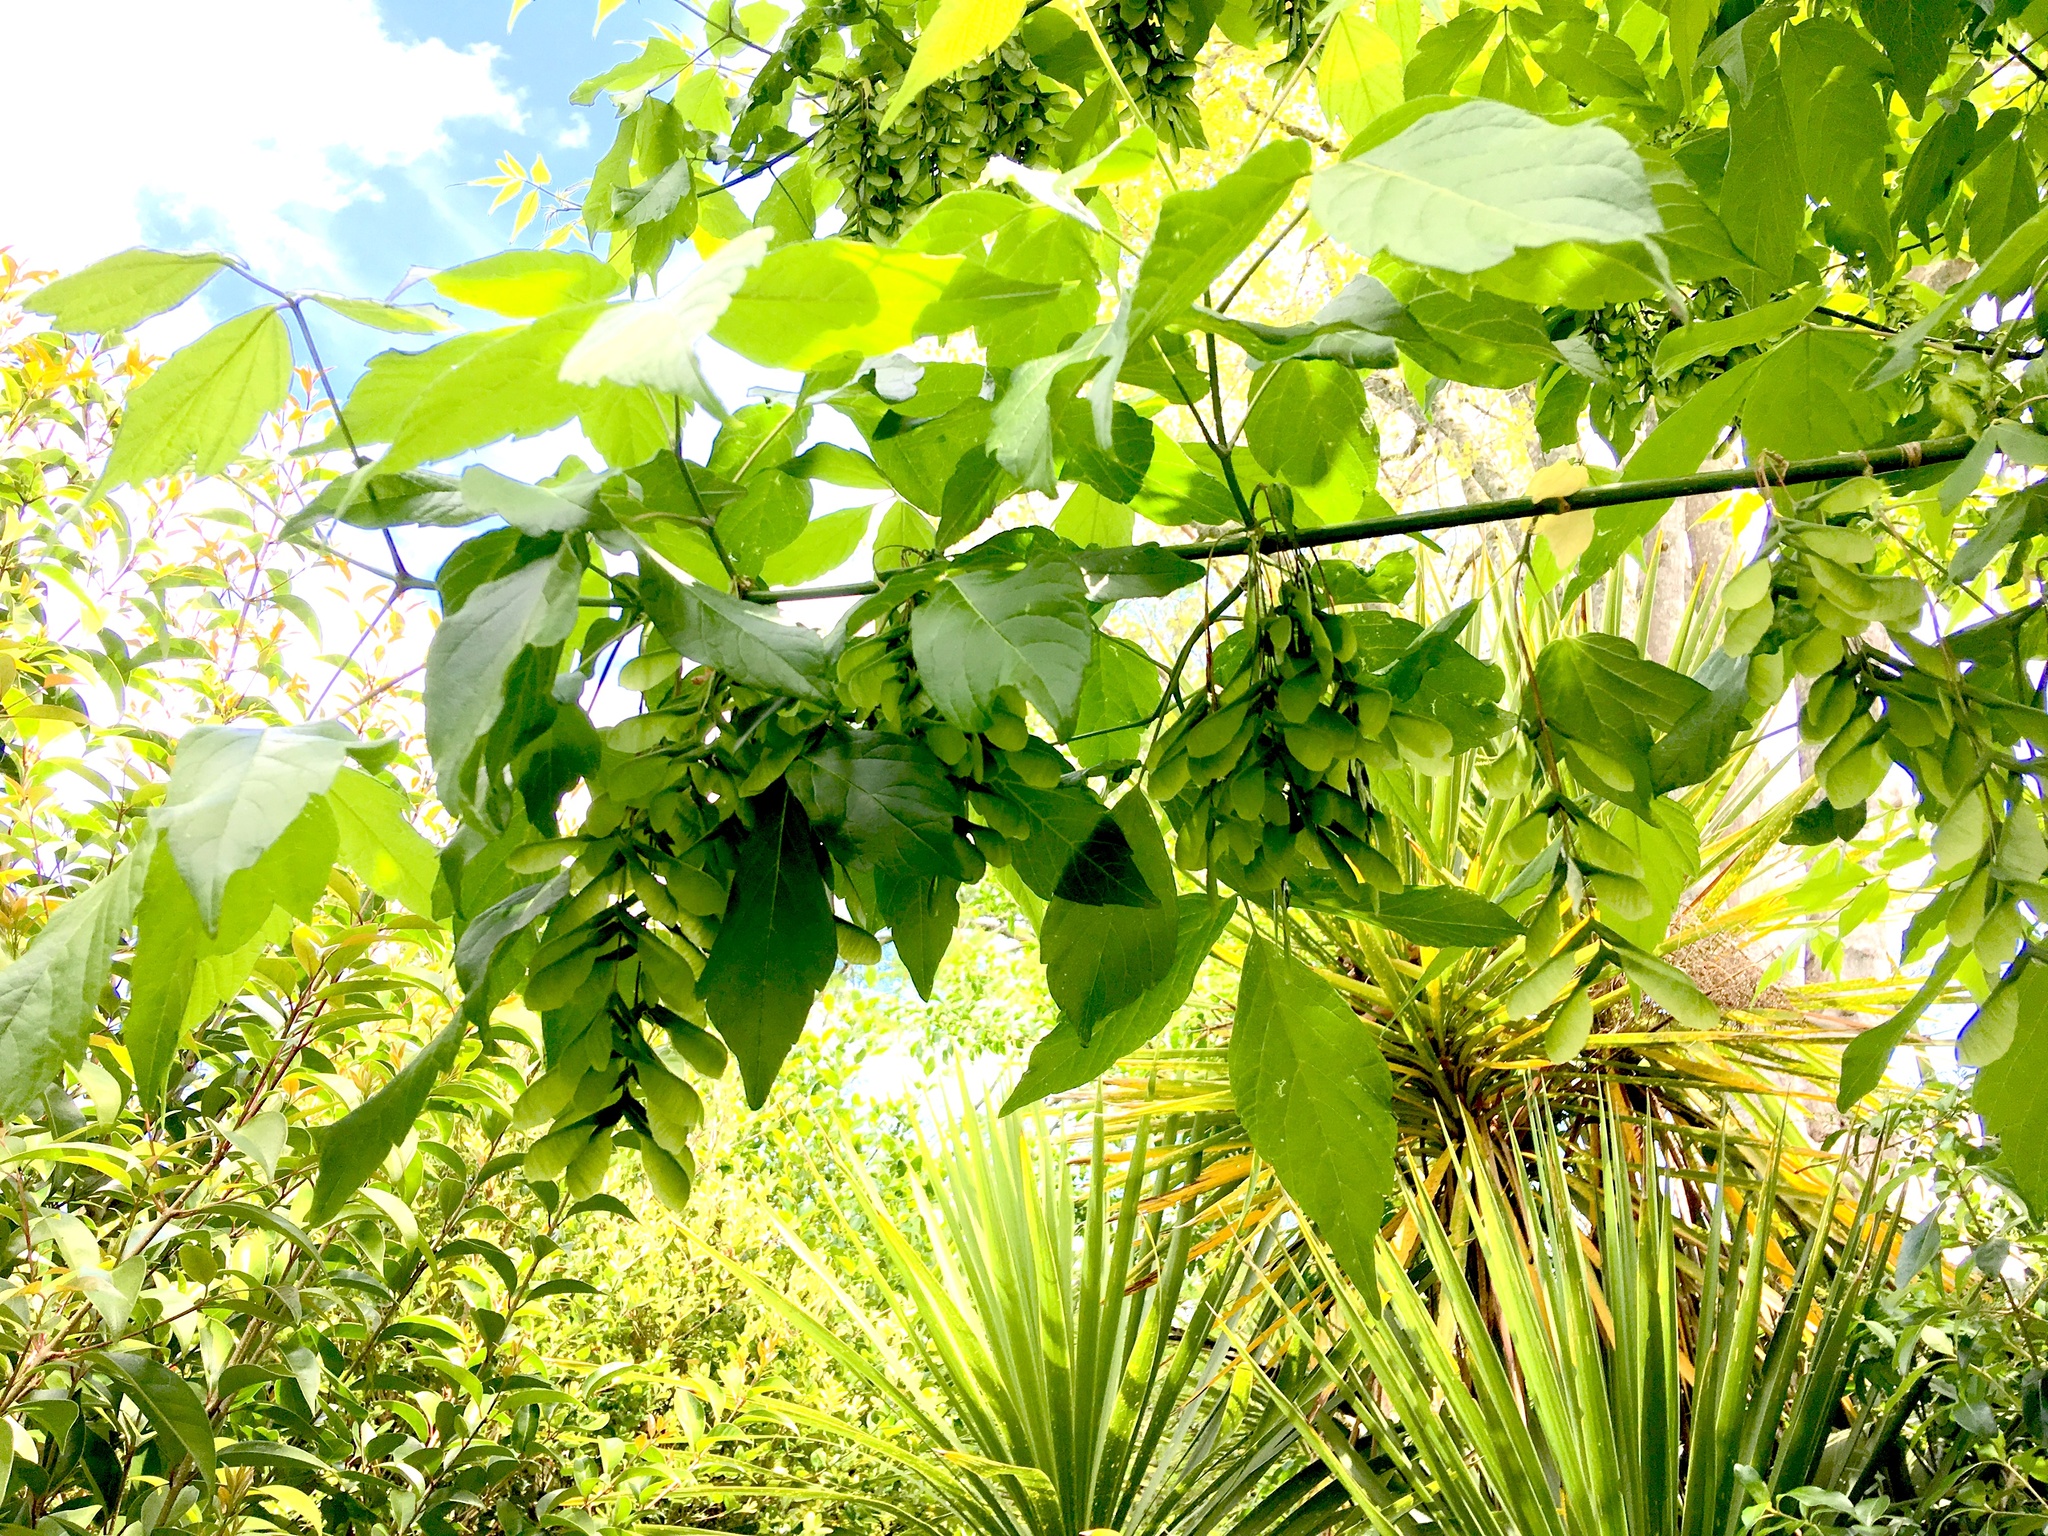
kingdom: Plantae
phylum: Tracheophyta
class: Magnoliopsida
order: Sapindales
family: Sapindaceae
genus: Acer
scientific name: Acer negundo
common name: Ashleaf maple
